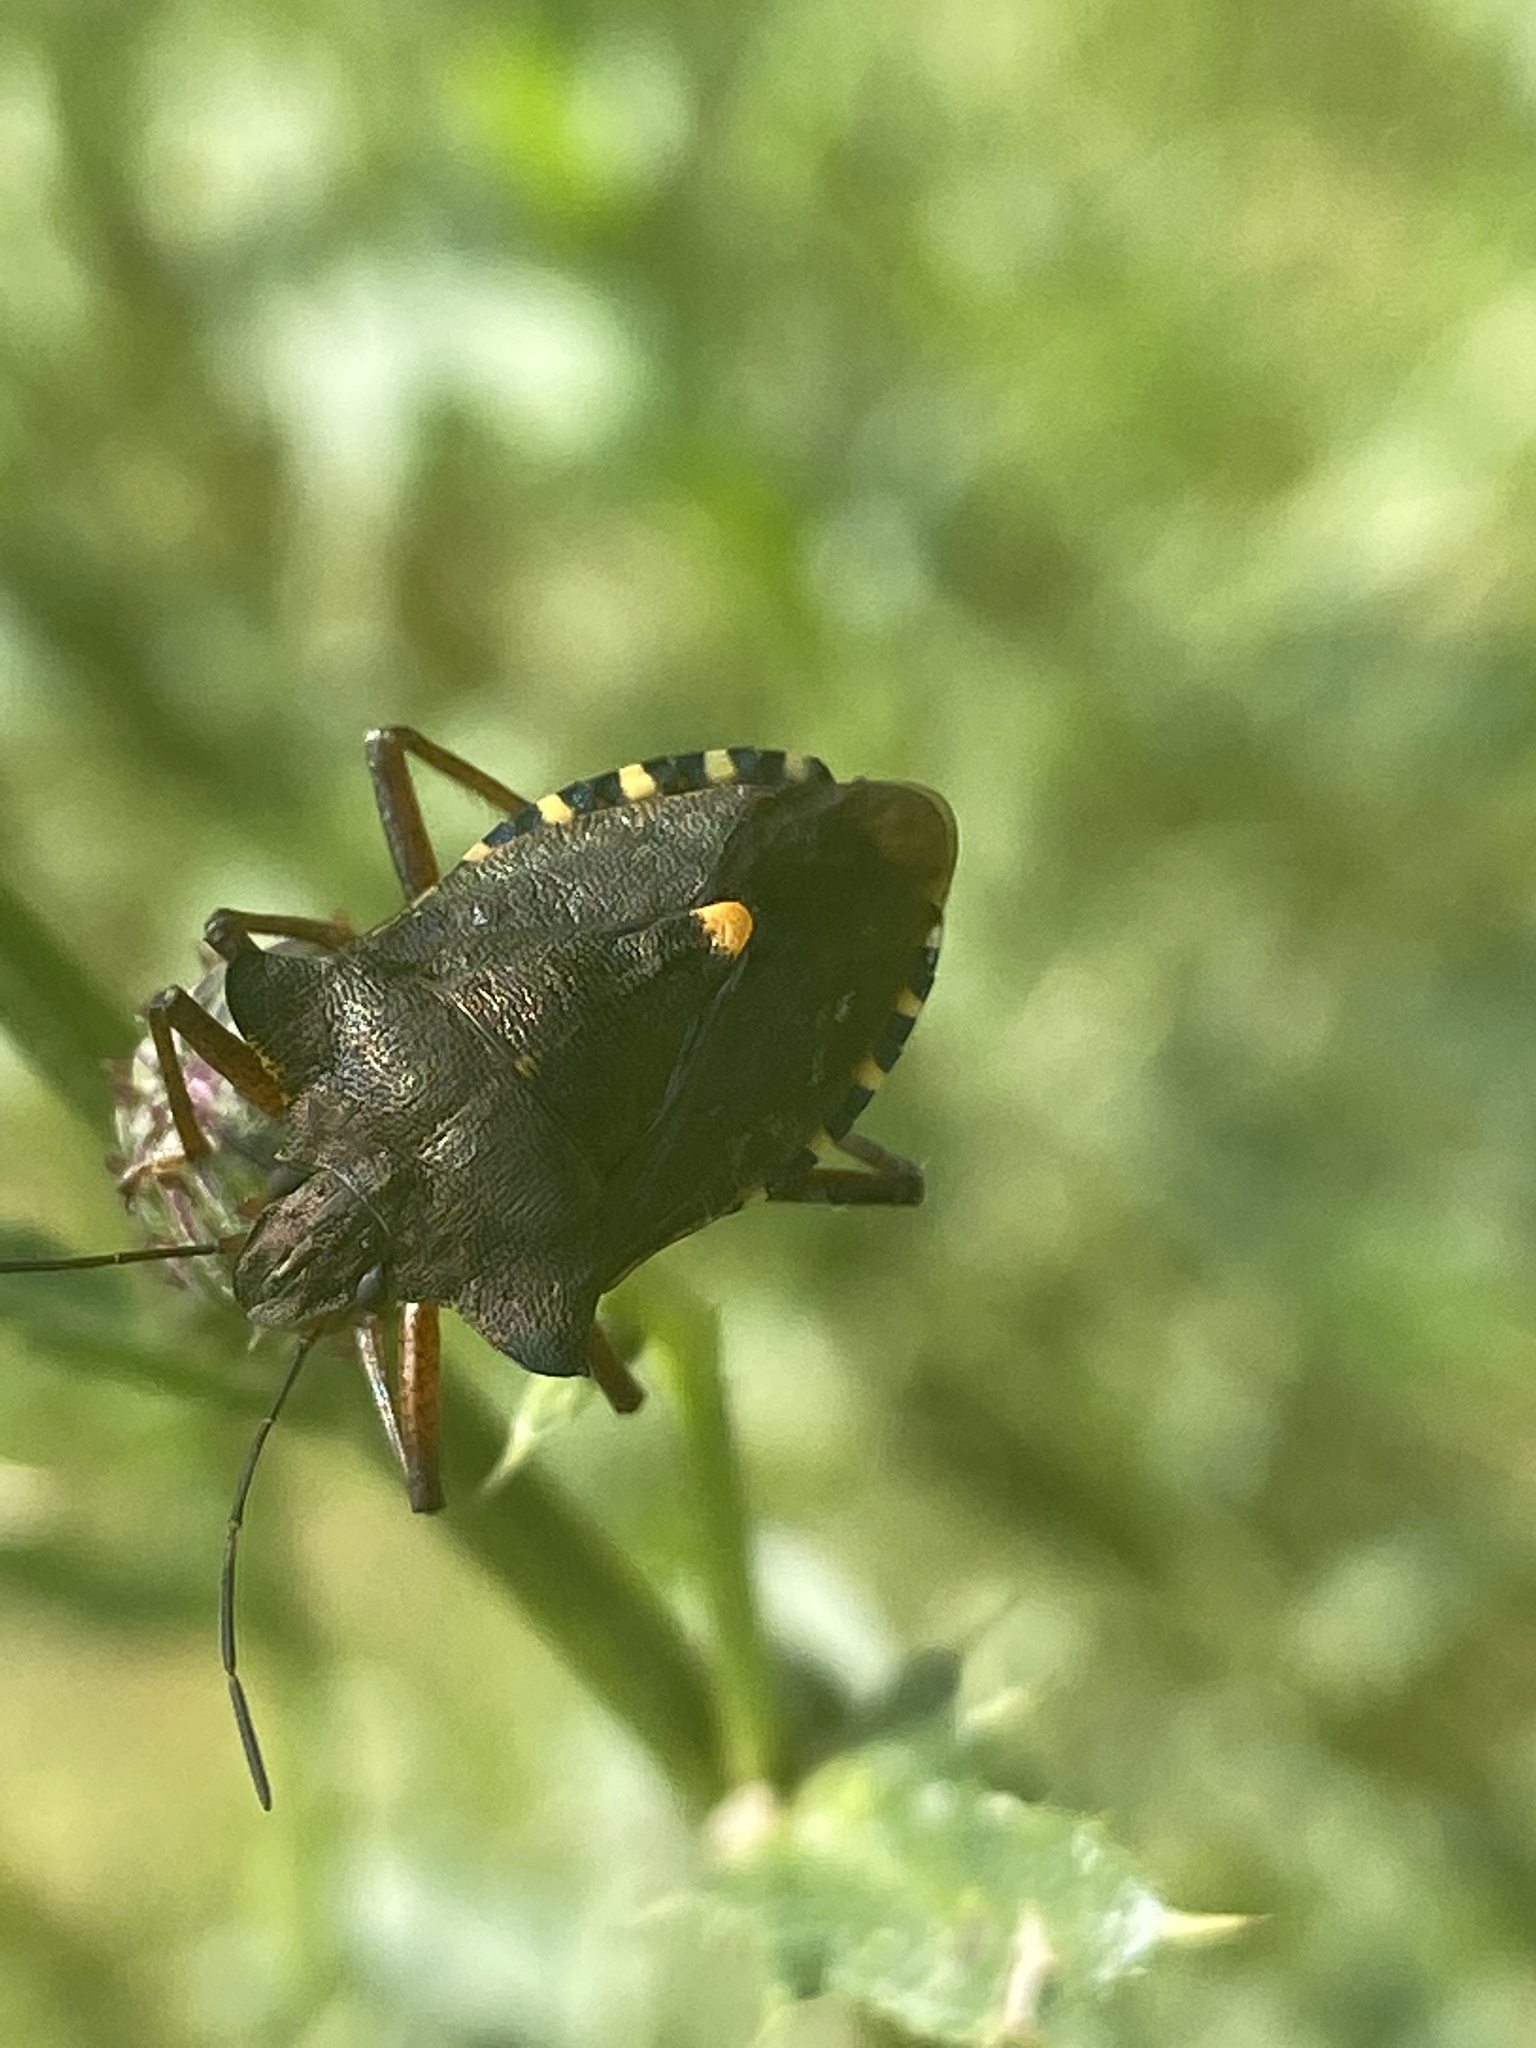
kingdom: Animalia
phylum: Arthropoda
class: Insecta
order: Hemiptera
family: Pentatomidae
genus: Pentatoma
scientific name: Pentatoma rufipes
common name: Forest bug
